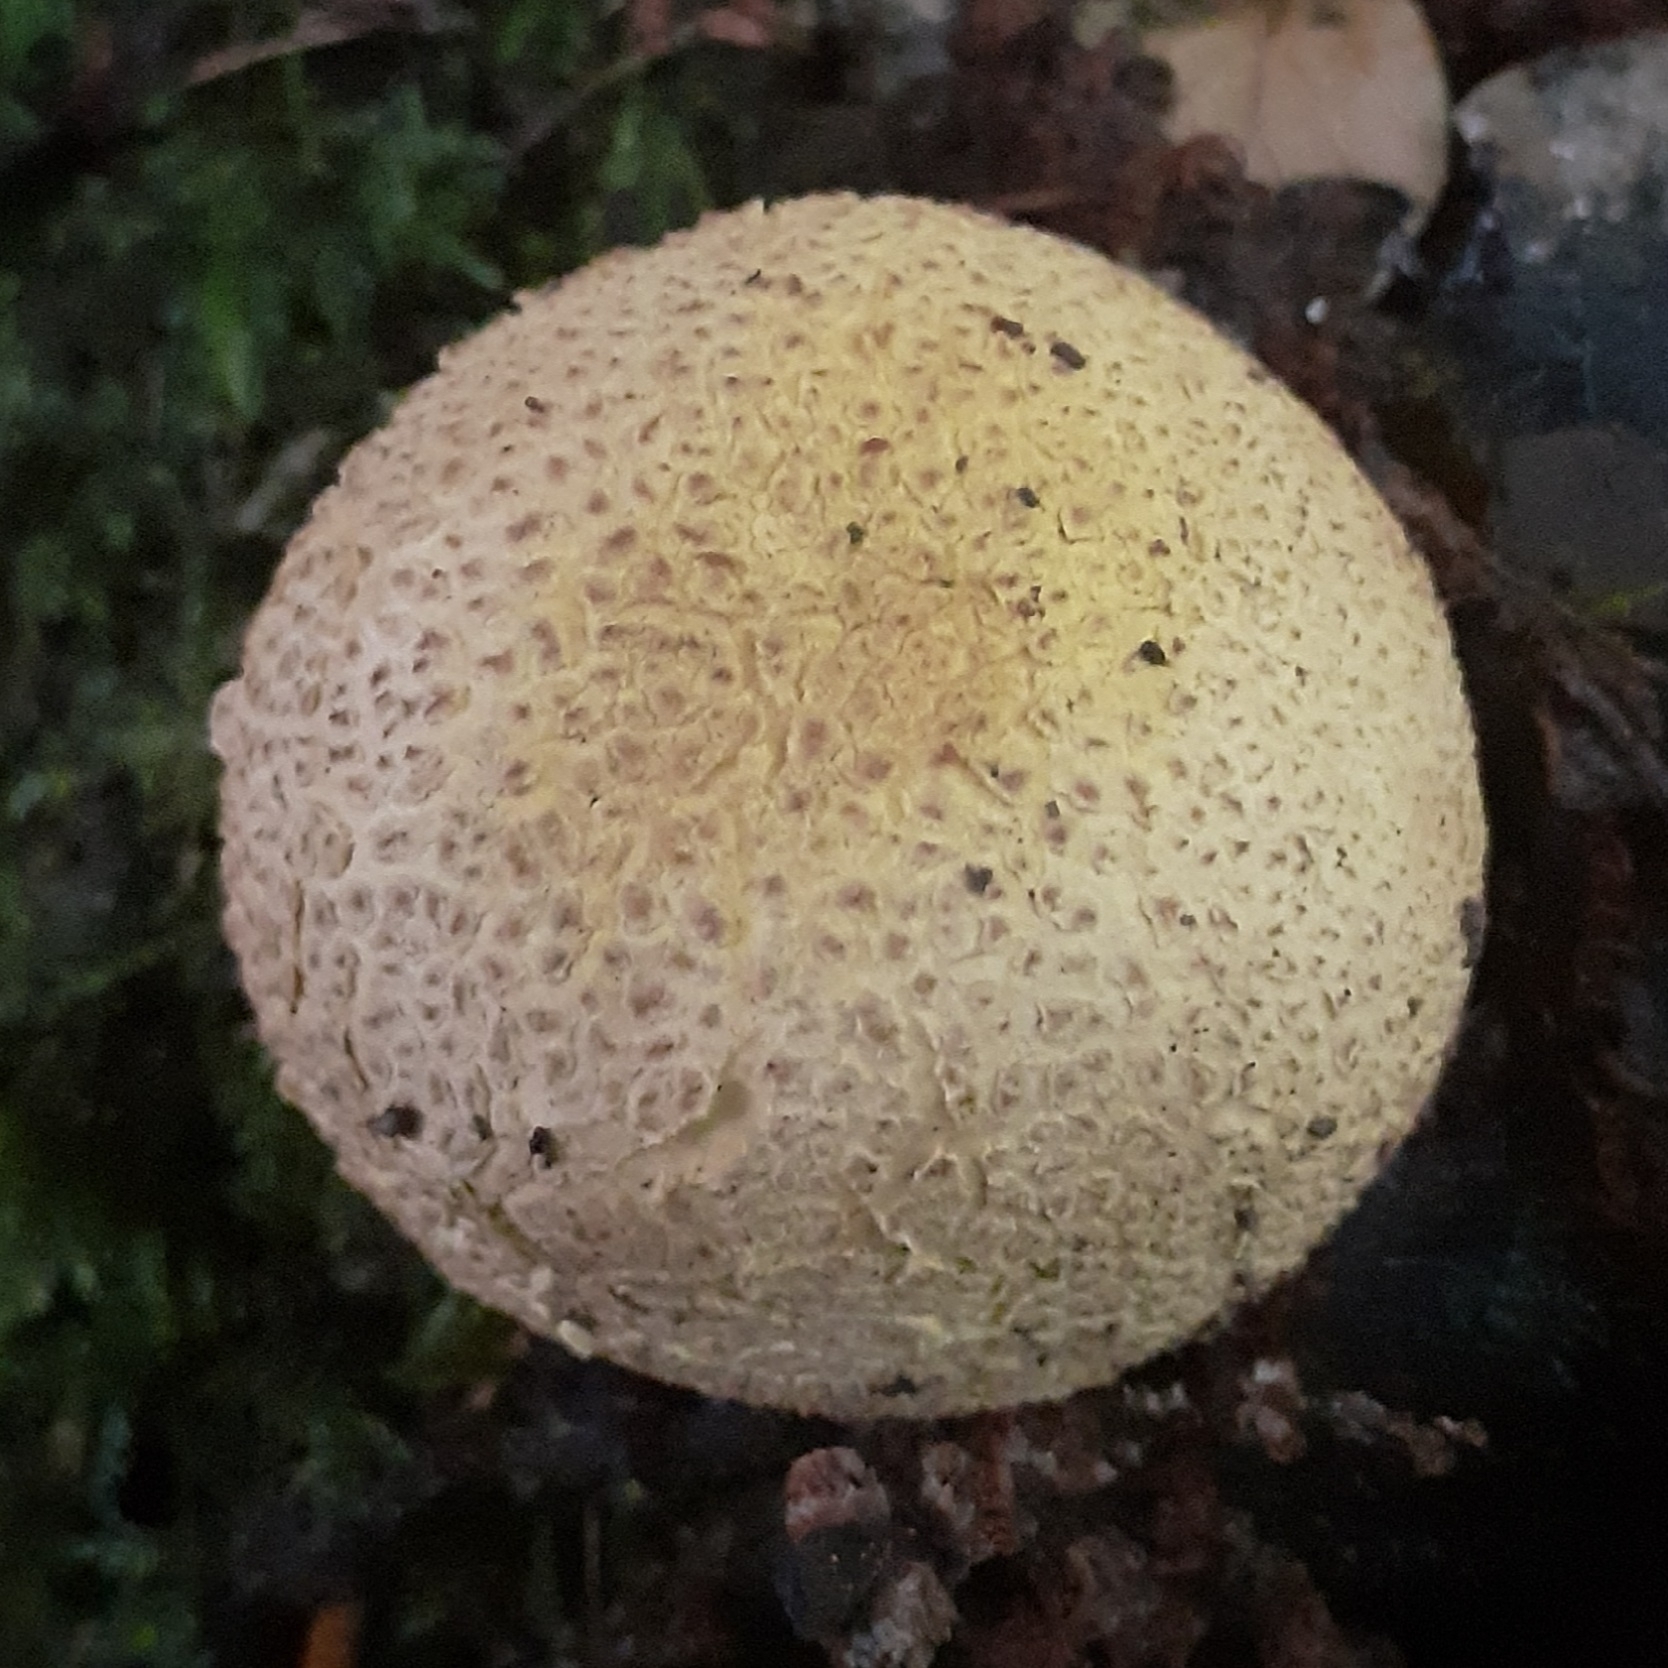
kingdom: Fungi
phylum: Basidiomycota
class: Agaricomycetes
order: Boletales
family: Sclerodermataceae
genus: Scleroderma
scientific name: Scleroderma citrinum
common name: Common earthball
